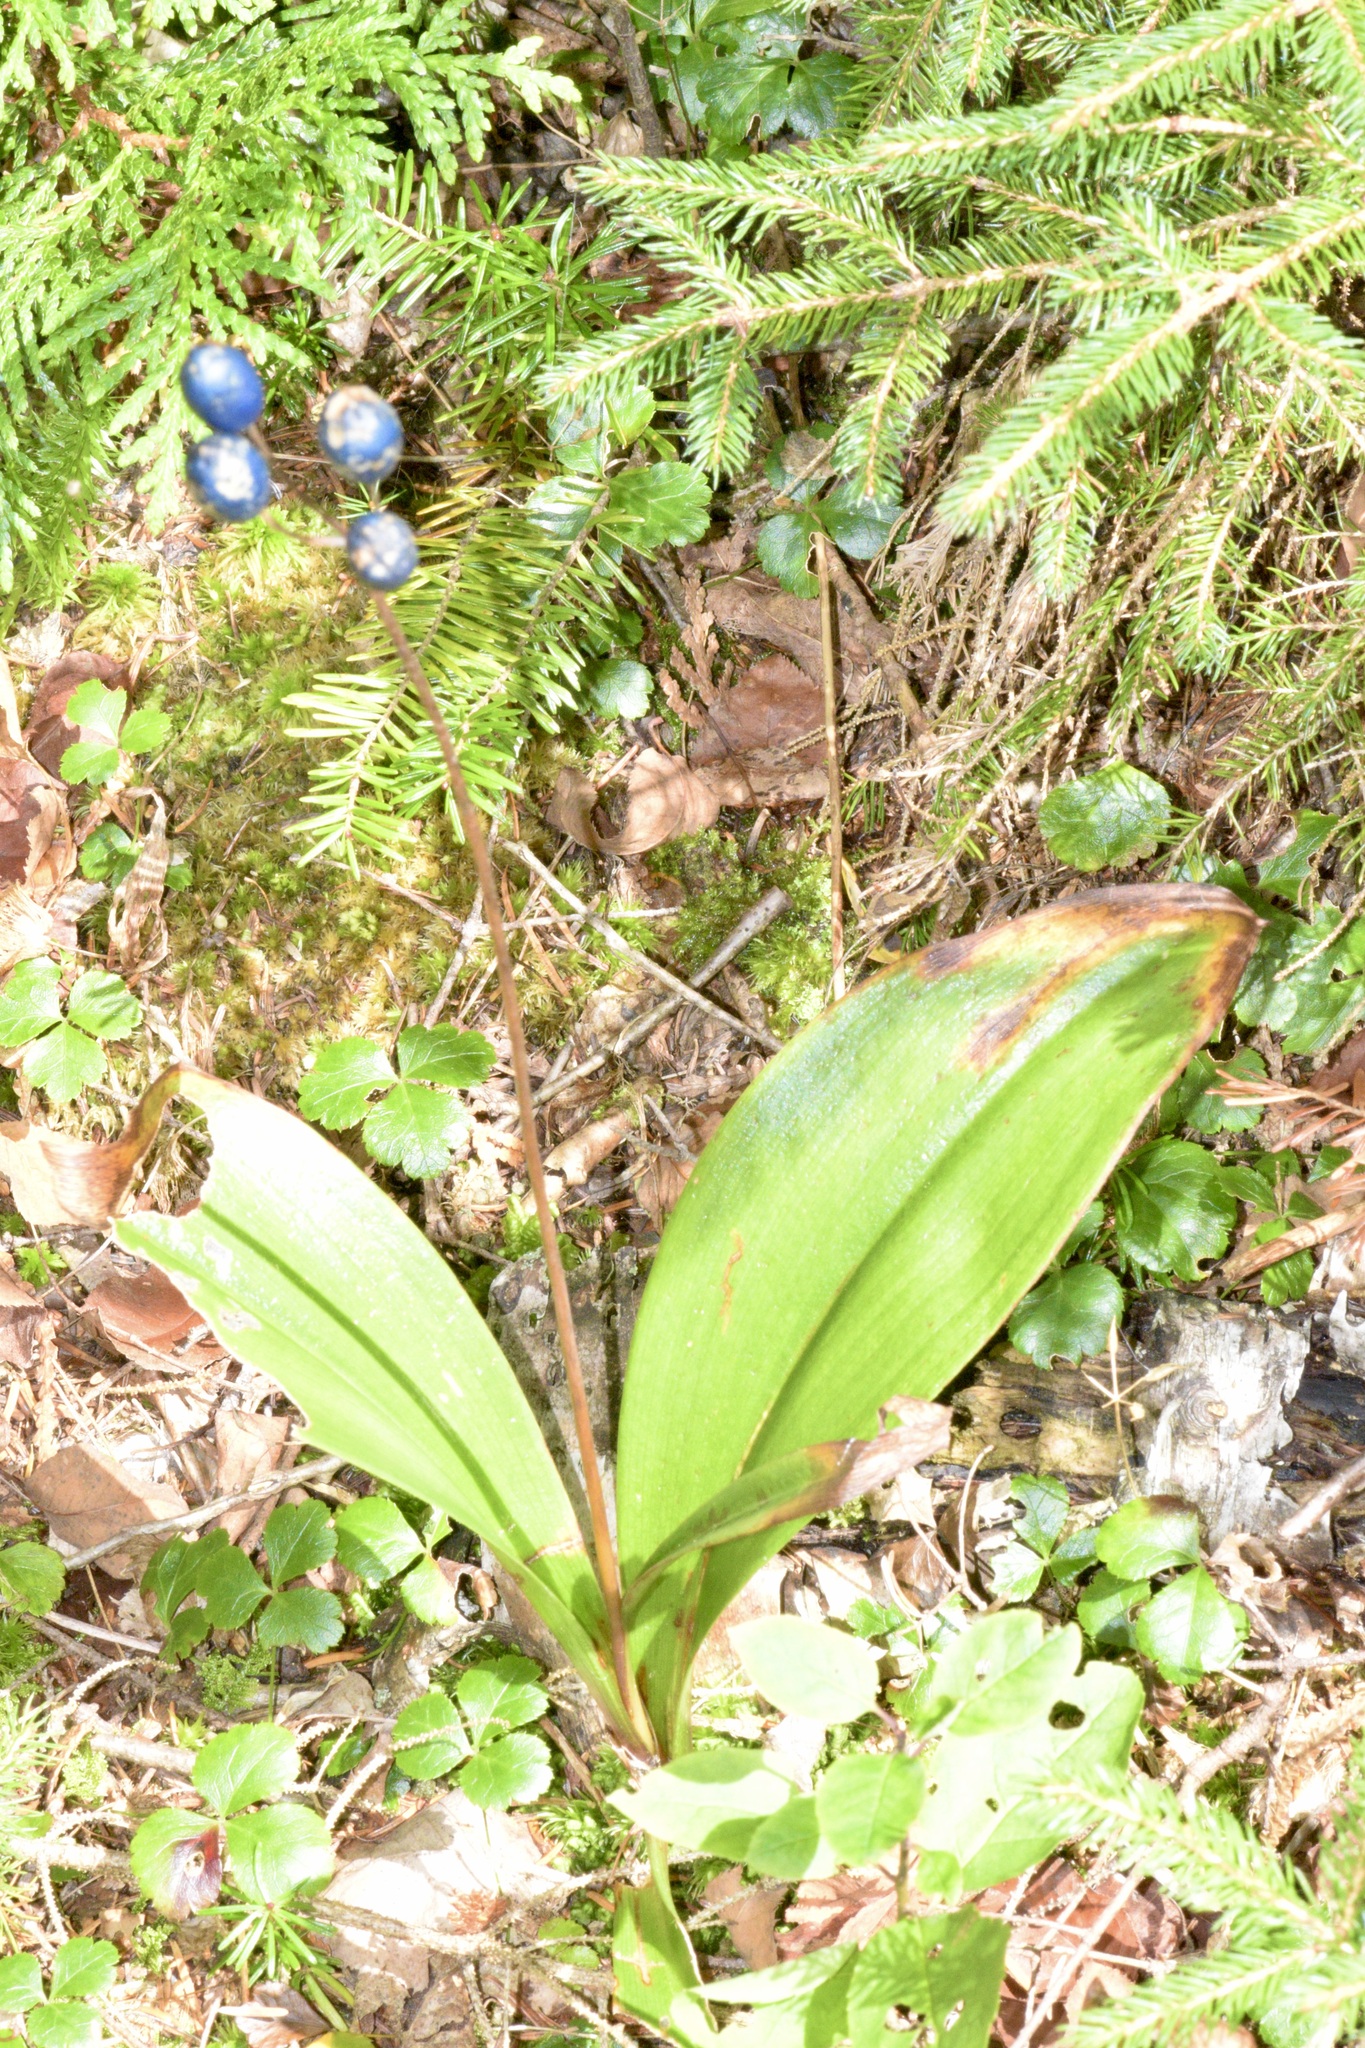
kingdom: Plantae
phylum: Tracheophyta
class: Liliopsida
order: Liliales
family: Liliaceae
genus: Clintonia
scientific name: Clintonia borealis
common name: Yellow clintonia
